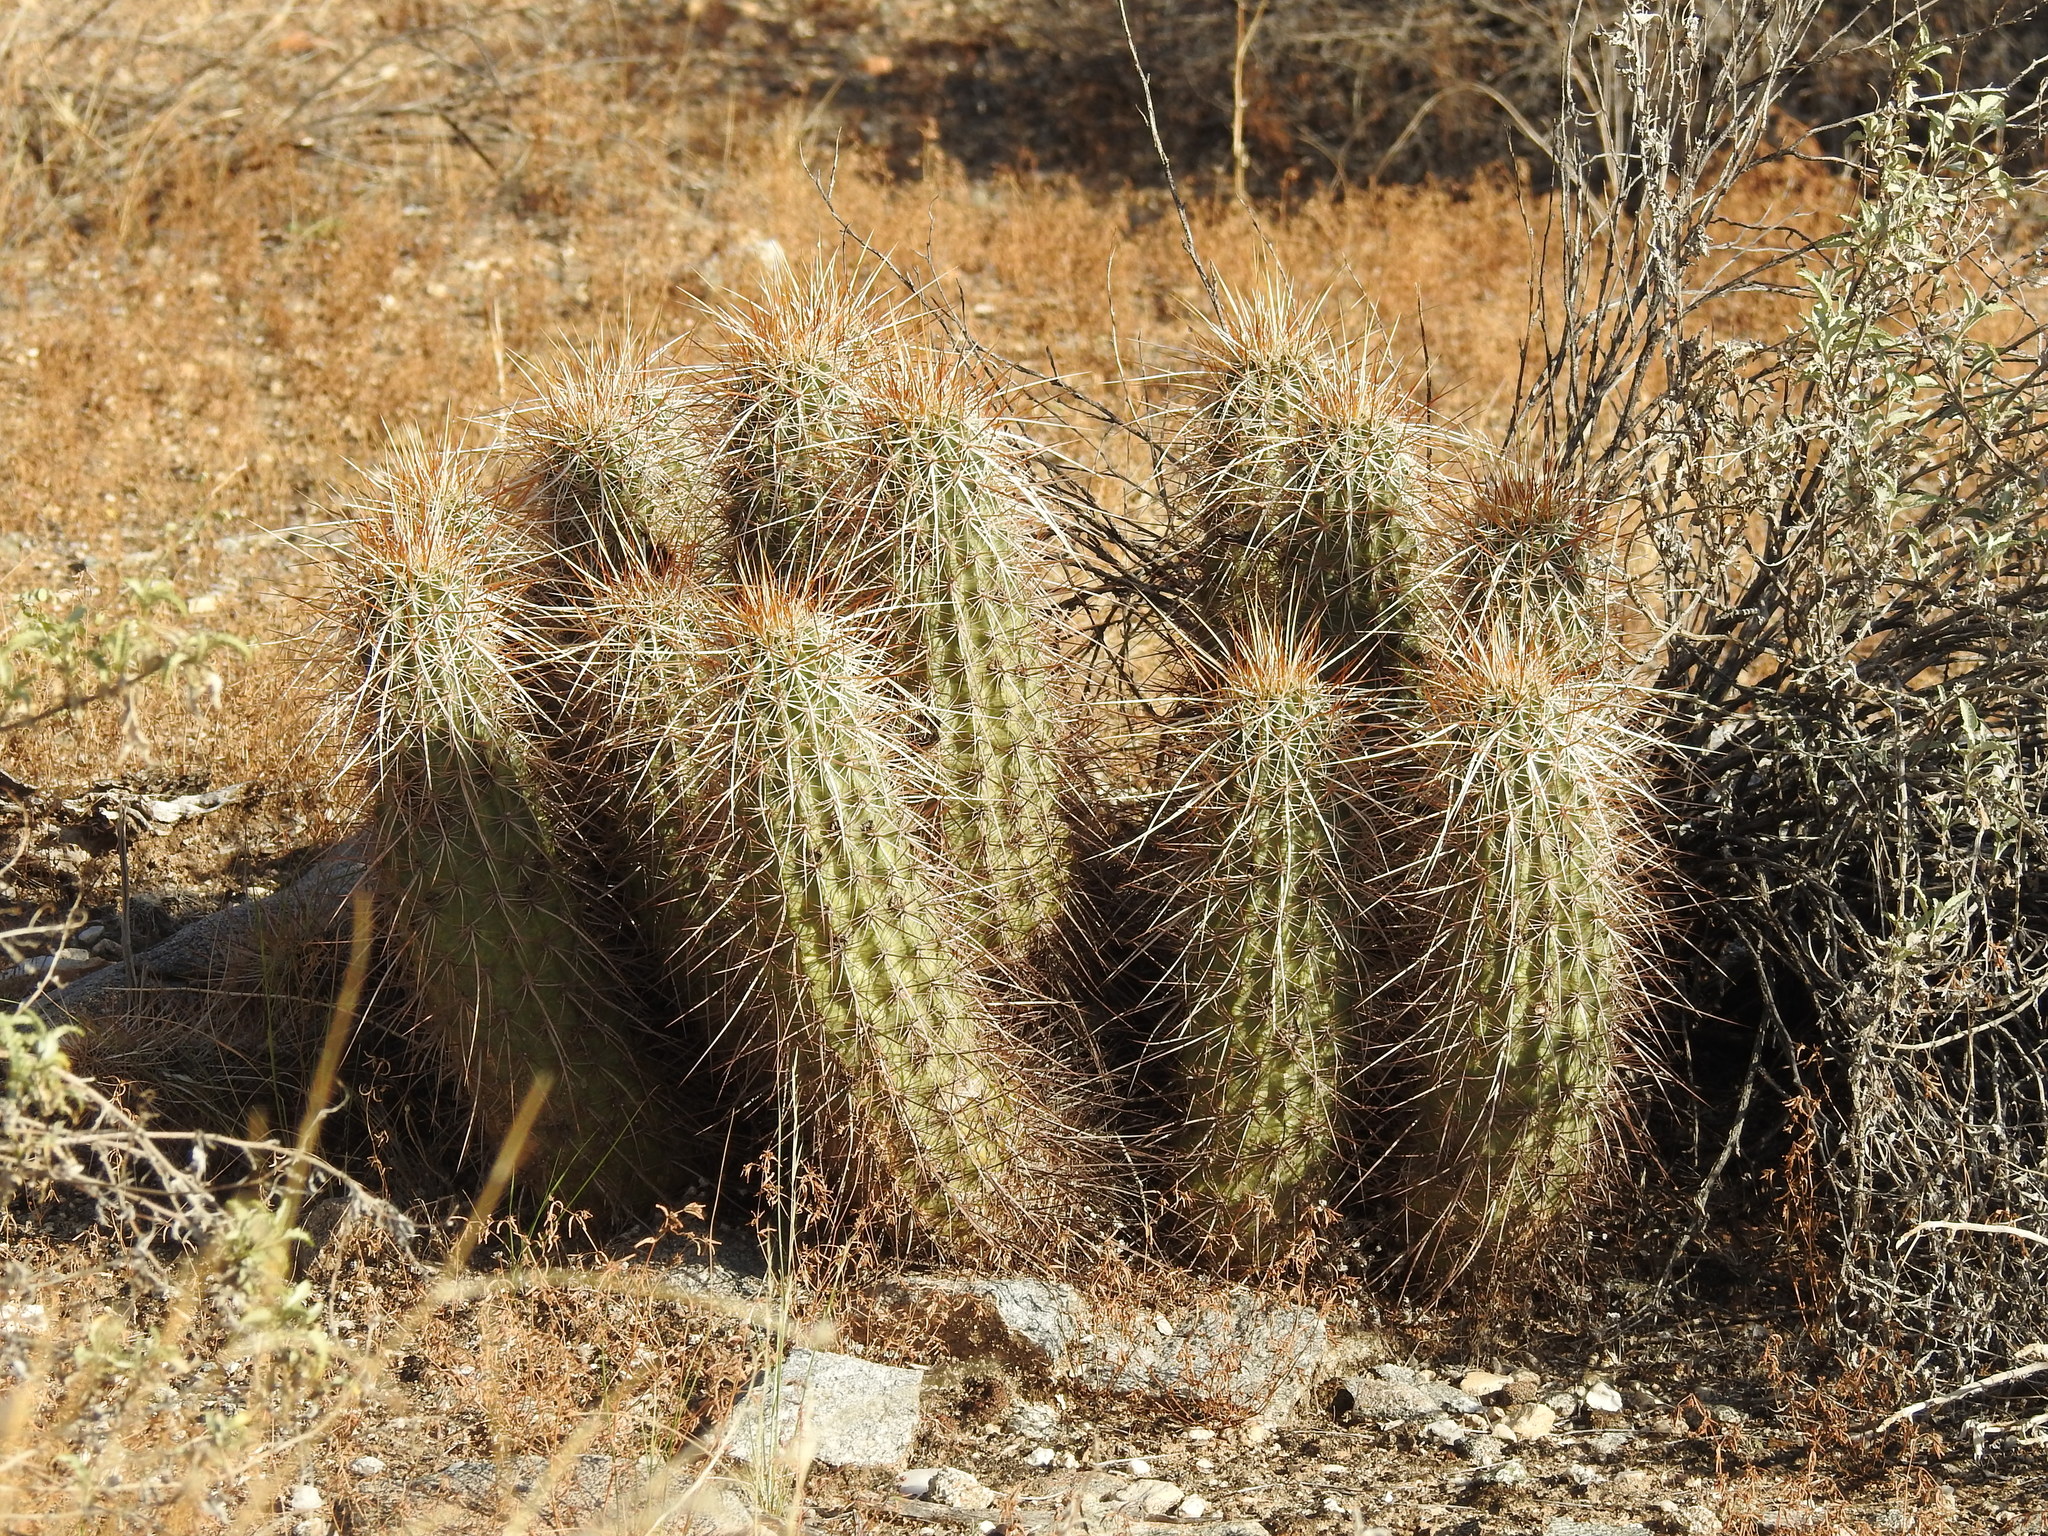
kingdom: Plantae
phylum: Tracheophyta
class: Magnoliopsida
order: Caryophyllales
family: Cactaceae
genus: Echinocereus
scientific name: Echinocereus engelmannii
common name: Engelmann's hedgehog cactus
